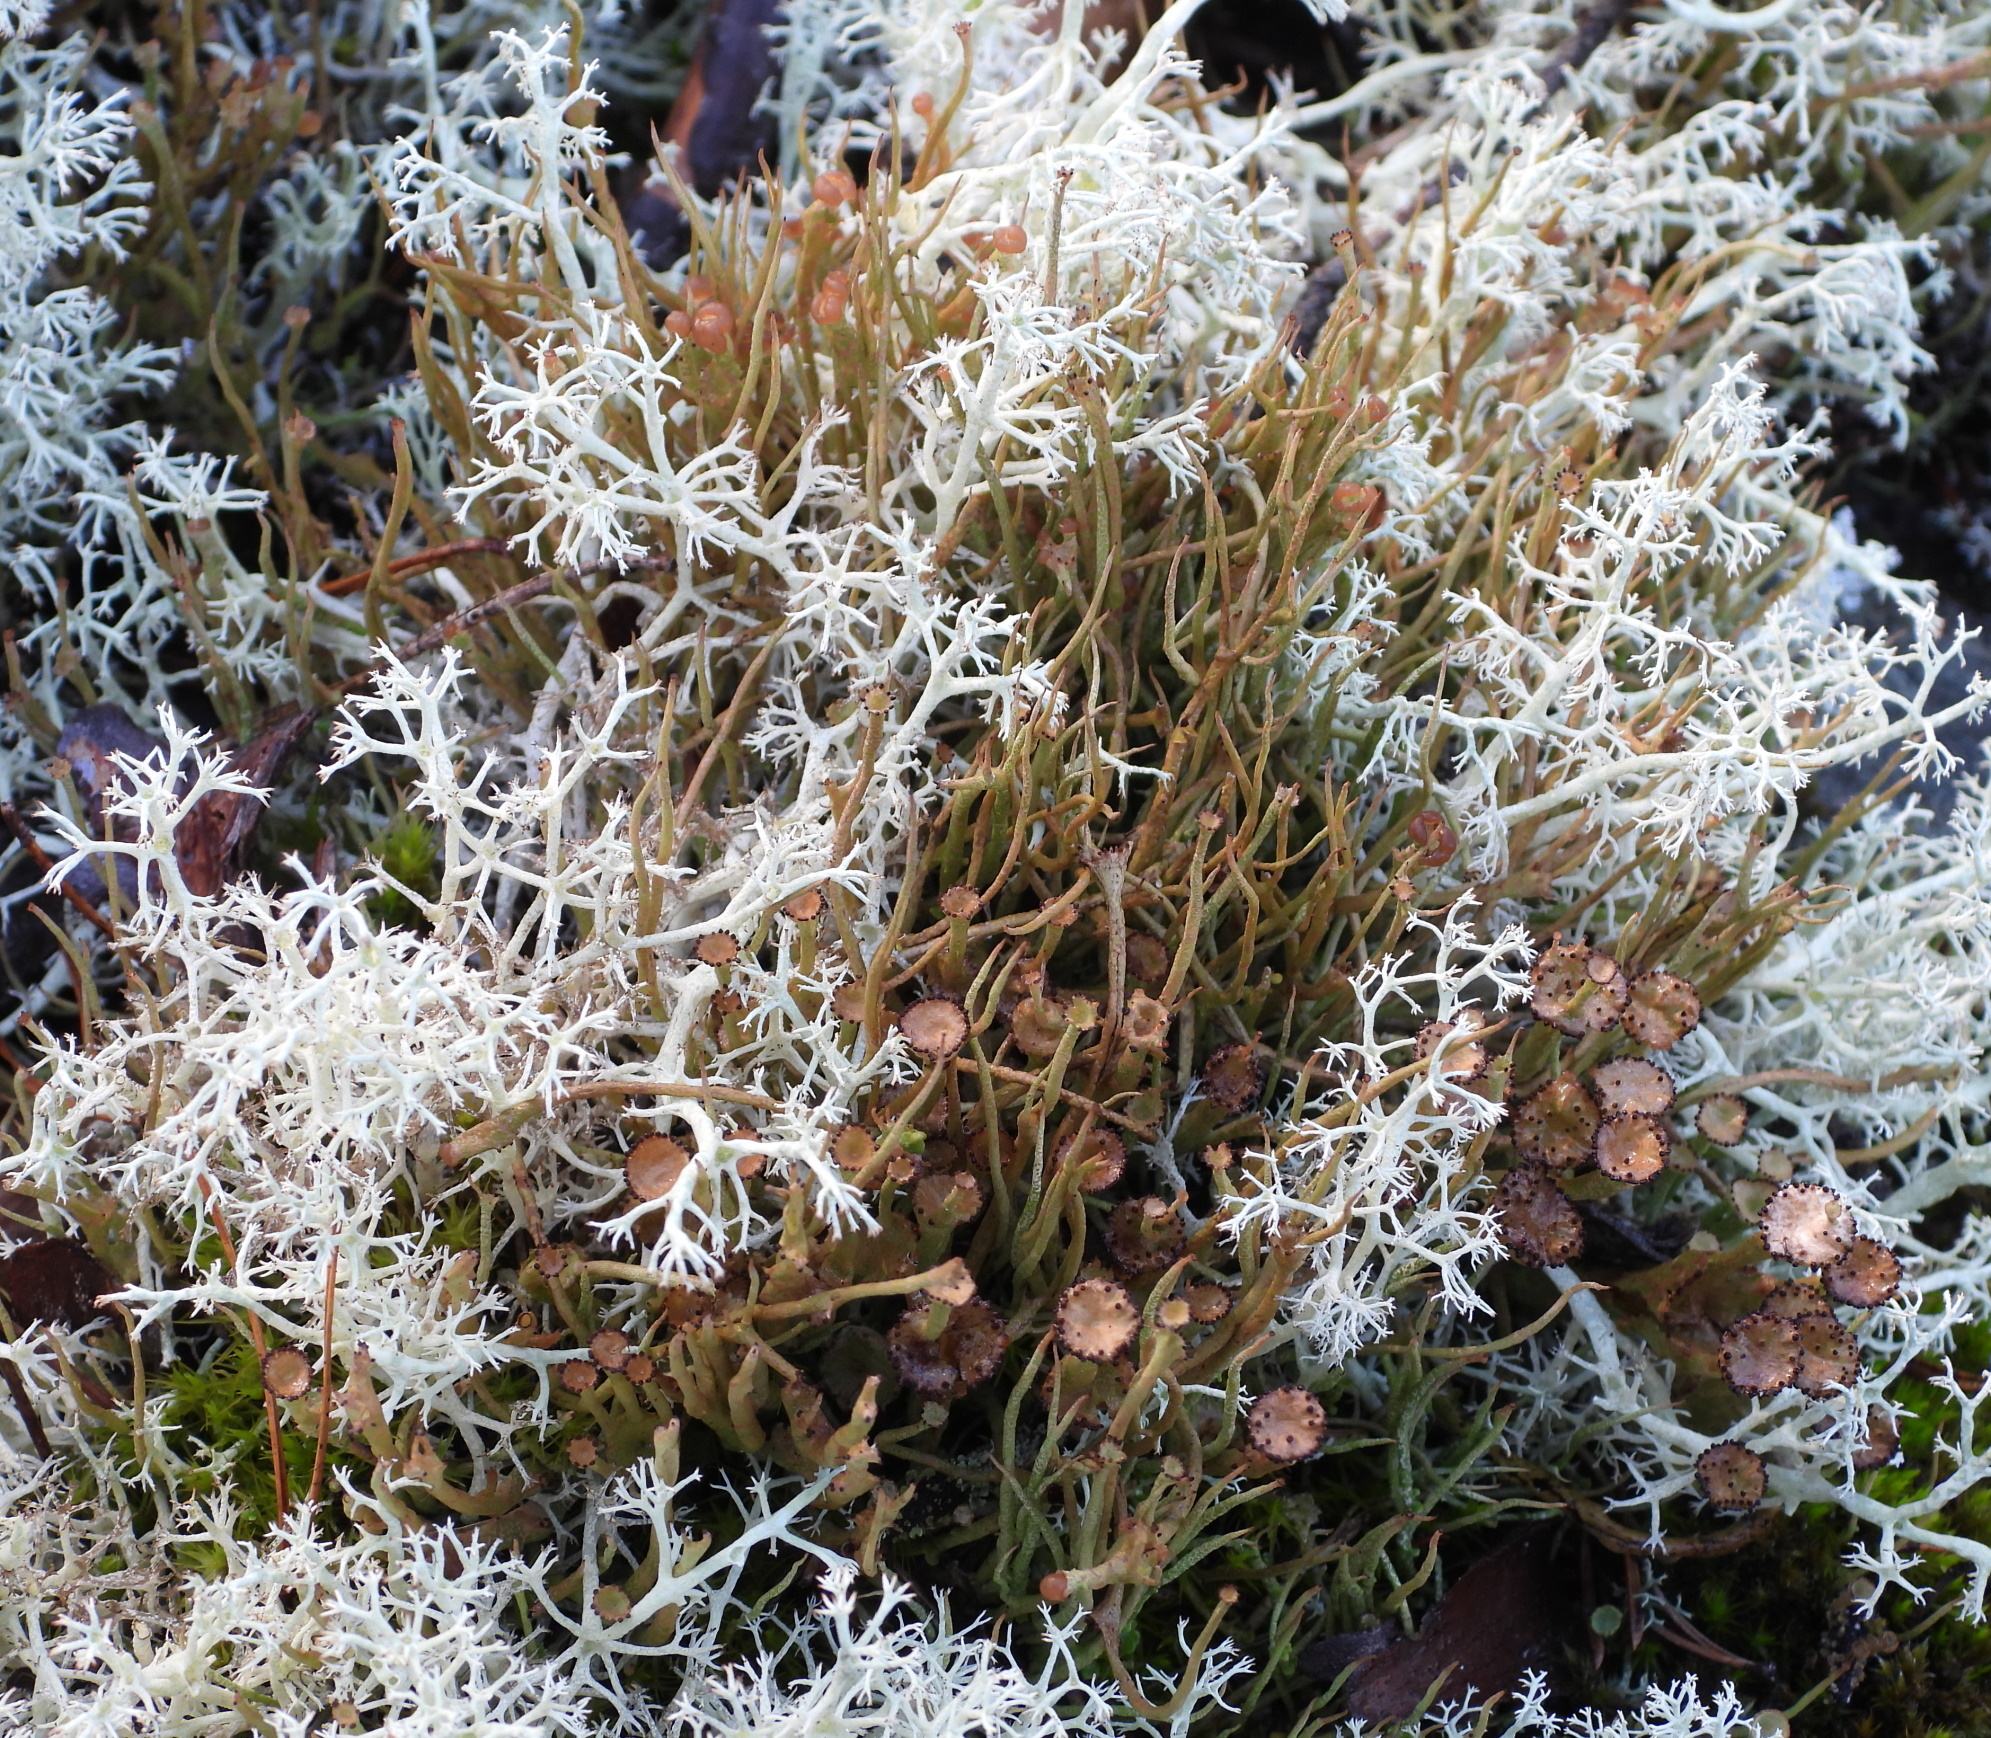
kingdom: Fungi
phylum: Ascomycota
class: Lecanoromycetes
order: Lecanorales
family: Cladoniaceae
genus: Cladonia
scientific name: Cladonia gracilis
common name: Smooth clad lichen
